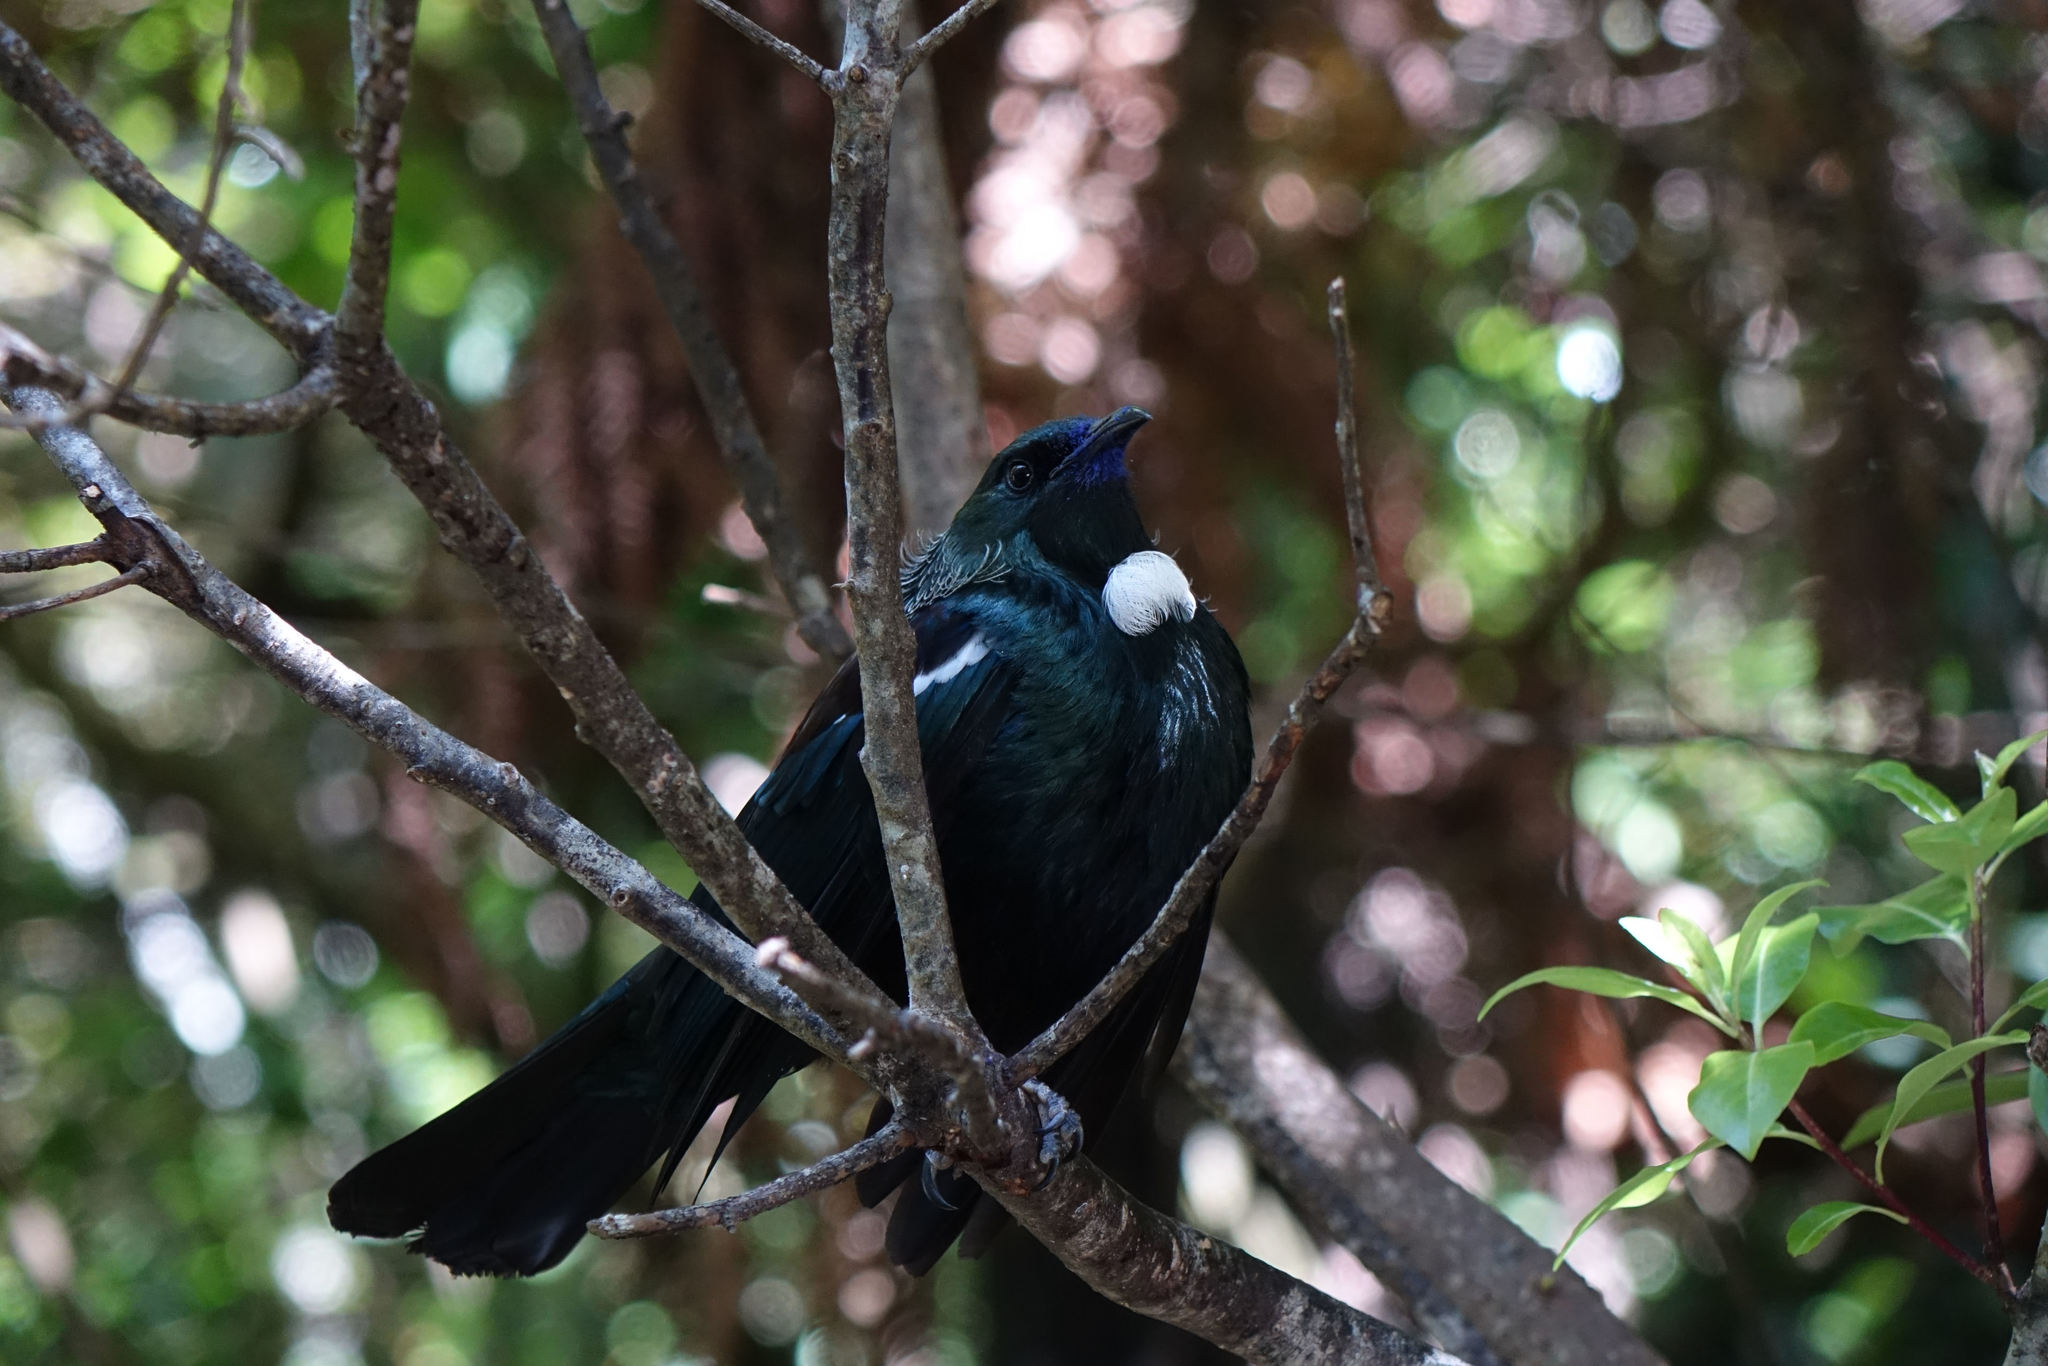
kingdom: Animalia
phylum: Chordata
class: Aves
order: Passeriformes
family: Meliphagidae
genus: Prosthemadera
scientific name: Prosthemadera novaeseelandiae
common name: Tui
